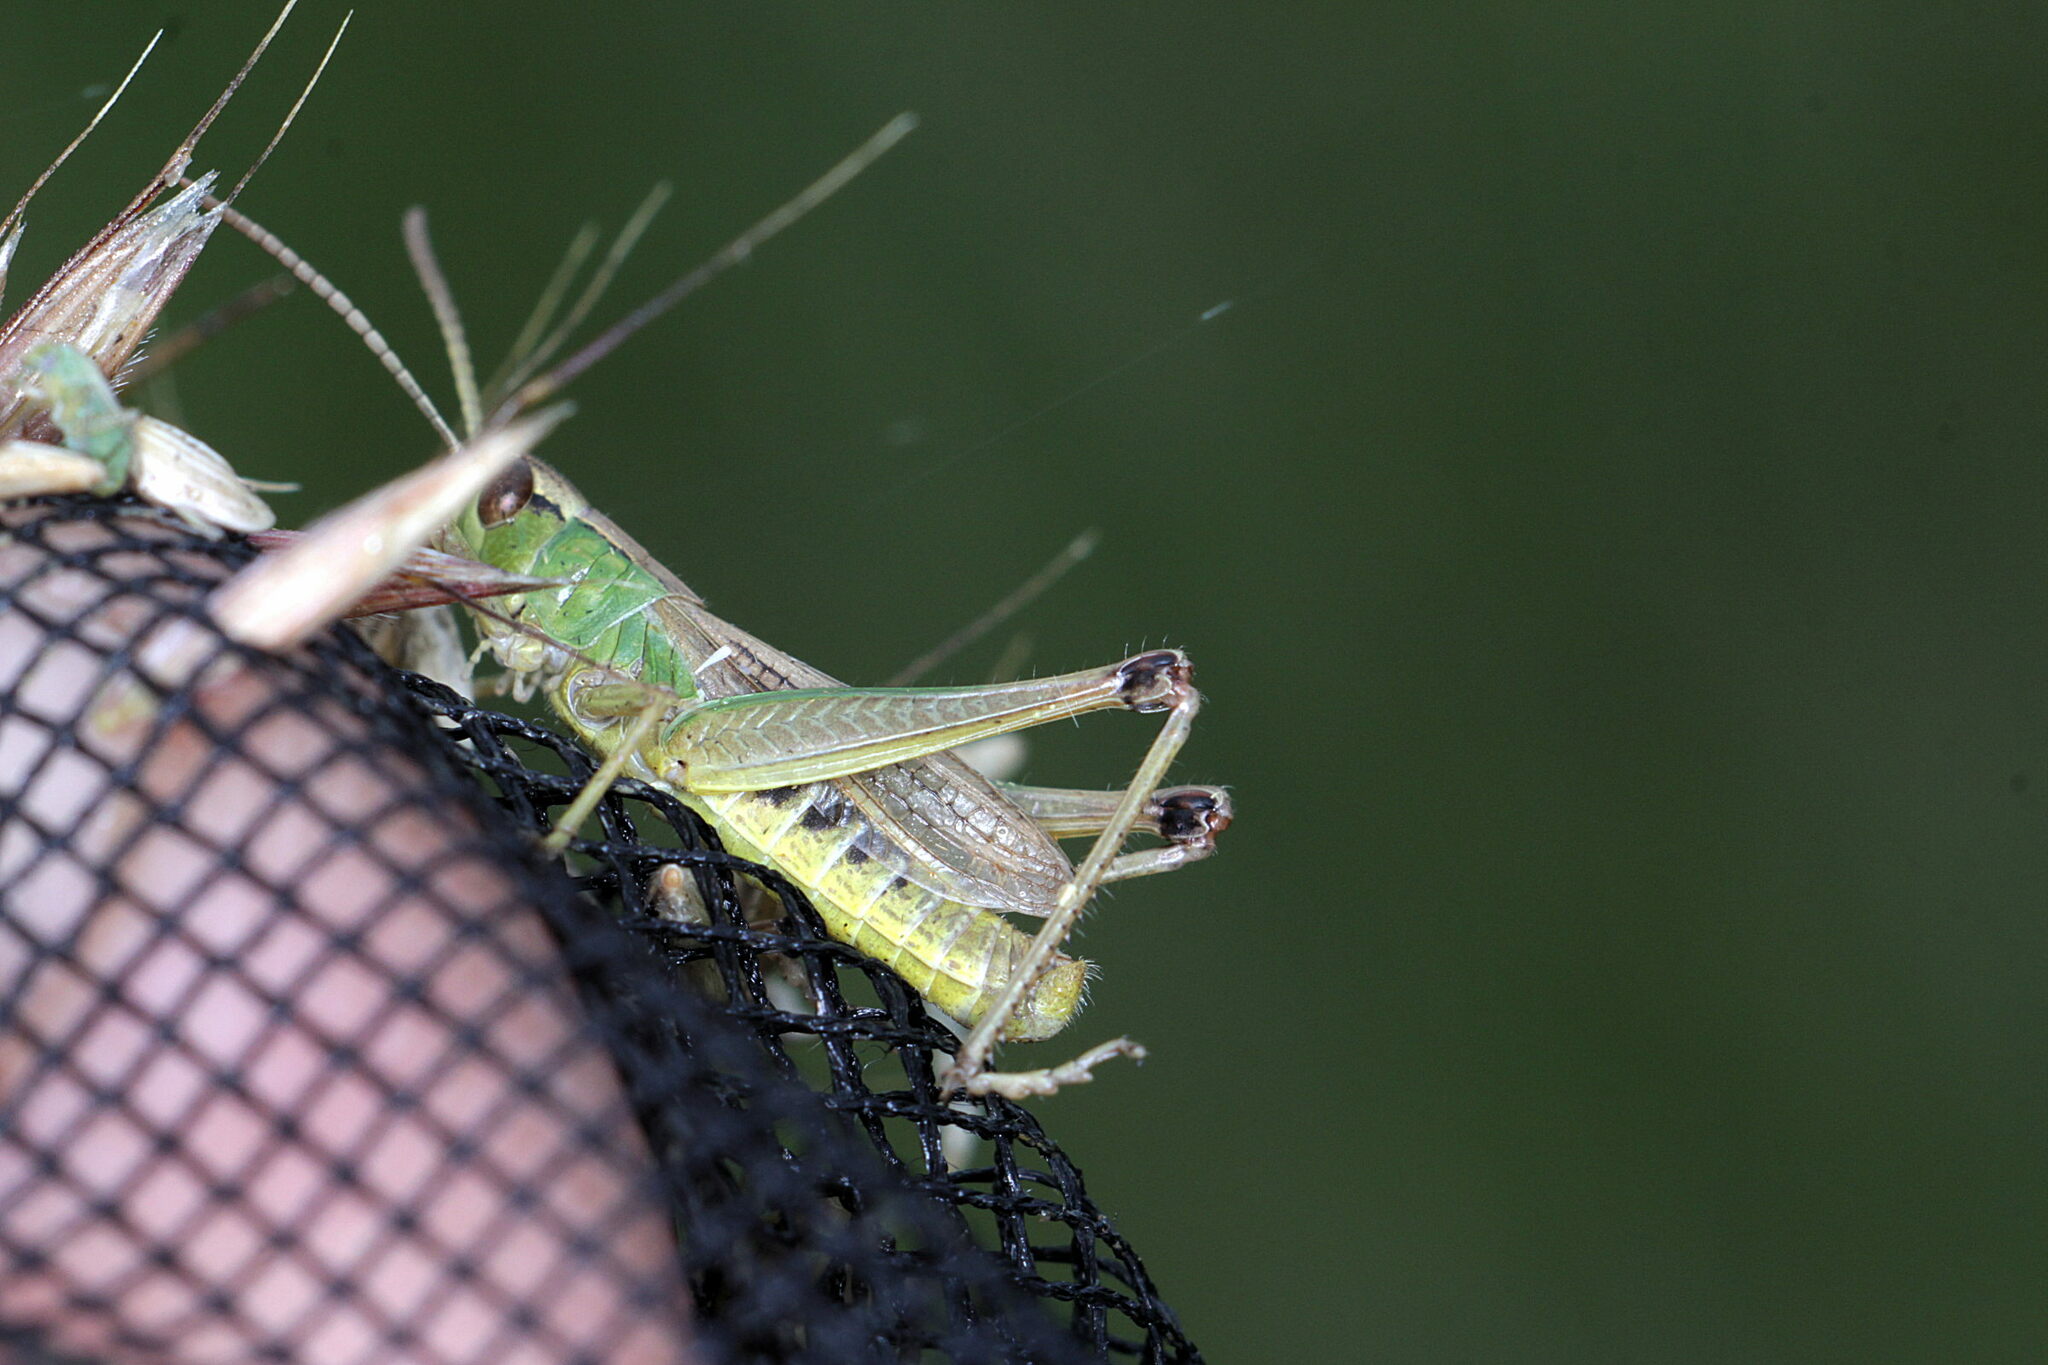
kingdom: Animalia
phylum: Arthropoda
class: Insecta
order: Orthoptera
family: Acrididae
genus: Pseudochorthippus
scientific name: Pseudochorthippus parallelus
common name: Meadow grasshopper
